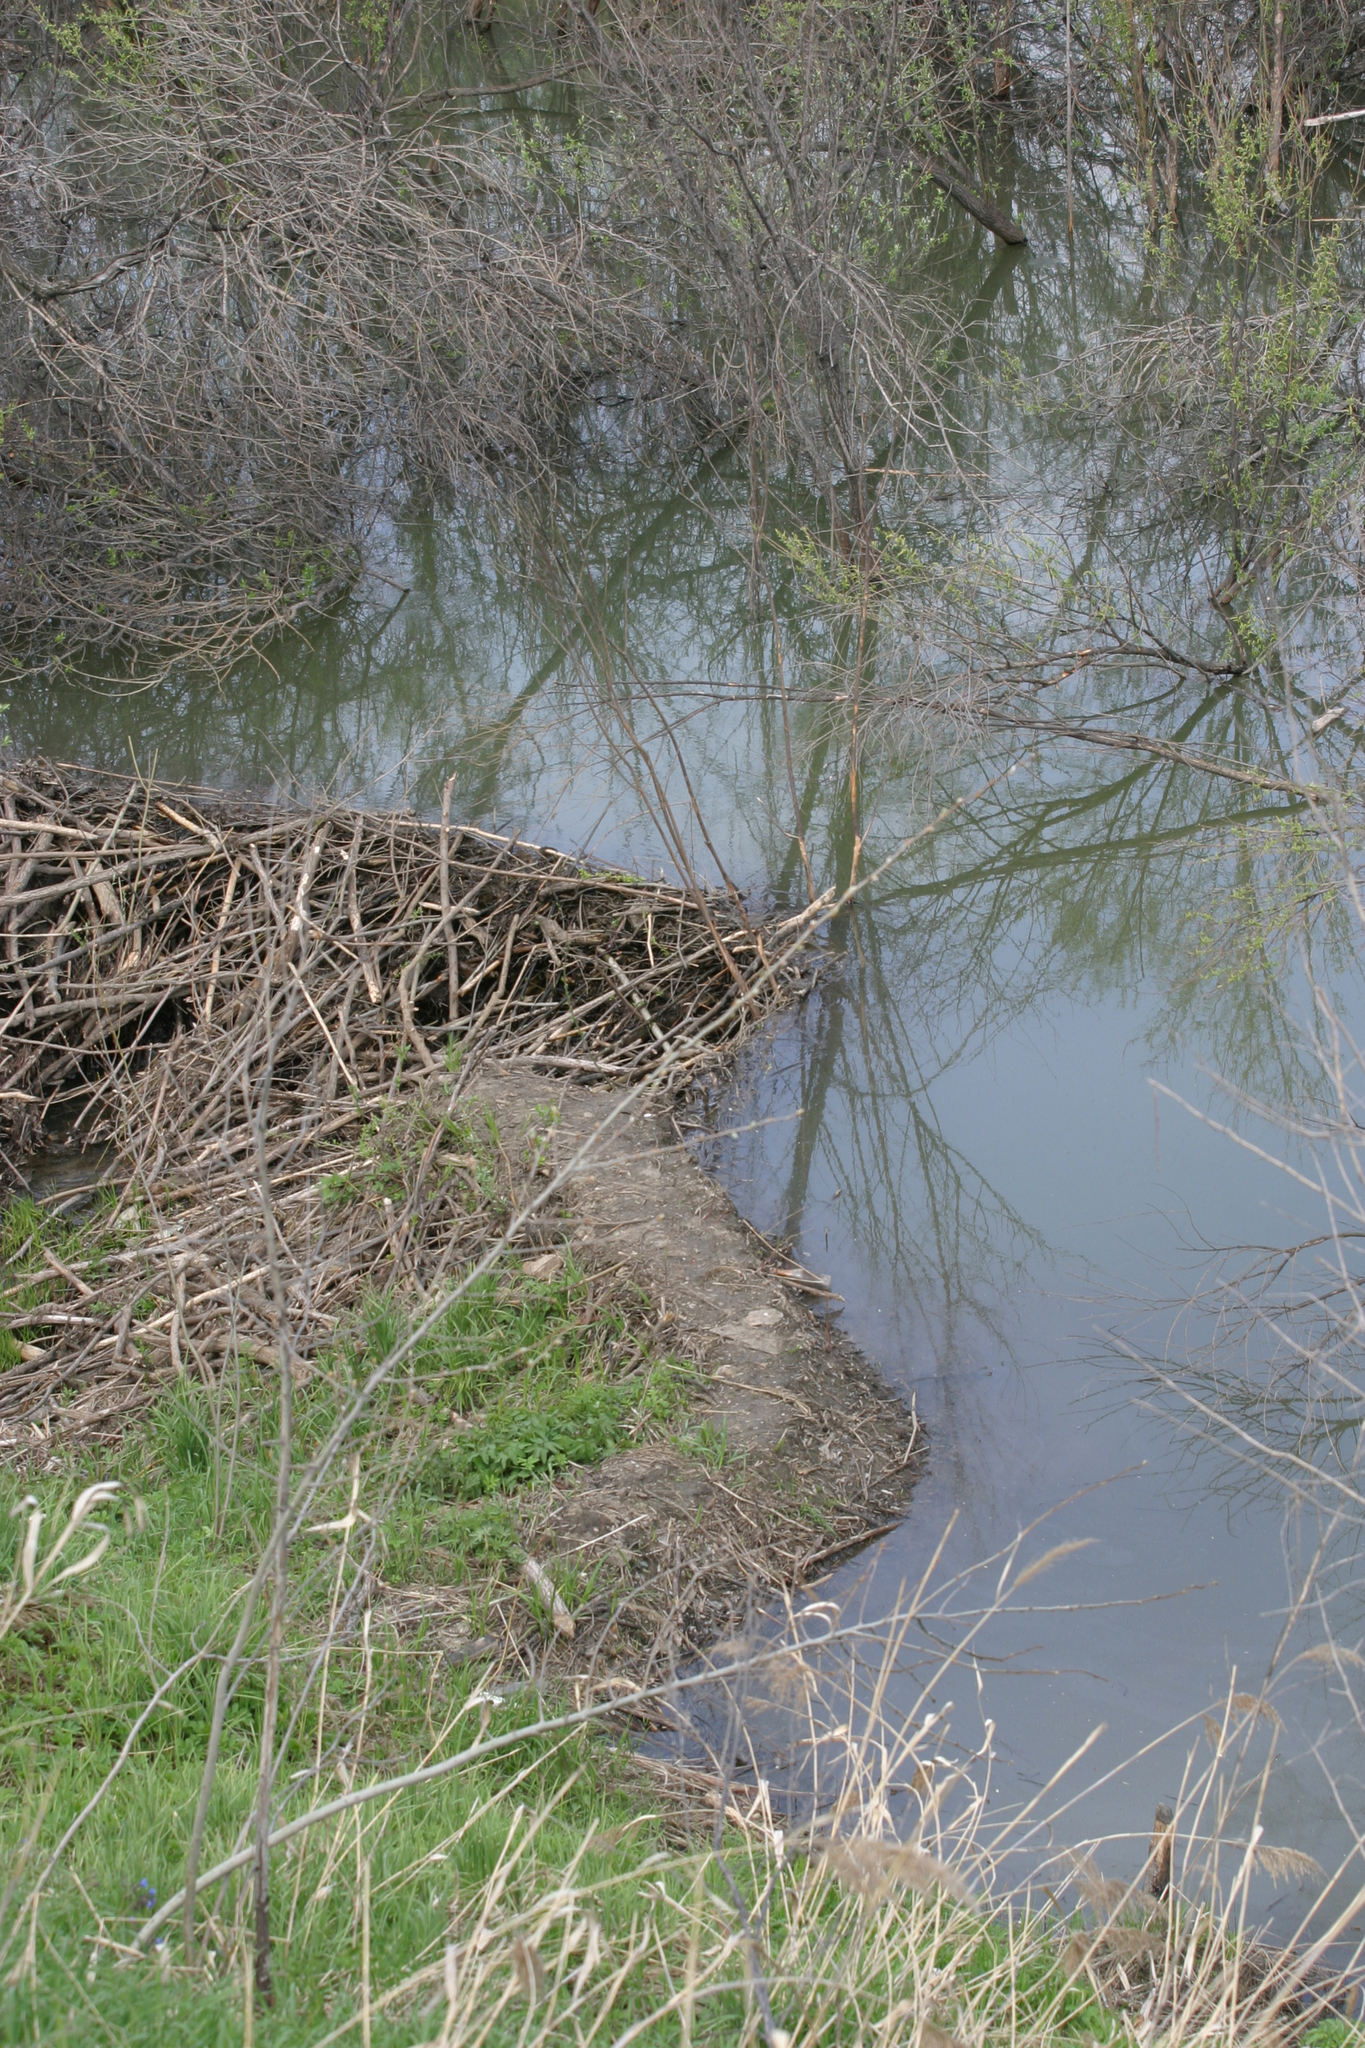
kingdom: Animalia
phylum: Chordata
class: Mammalia
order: Rodentia
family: Castoridae
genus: Castor
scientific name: Castor fiber
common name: Eurasian beaver
